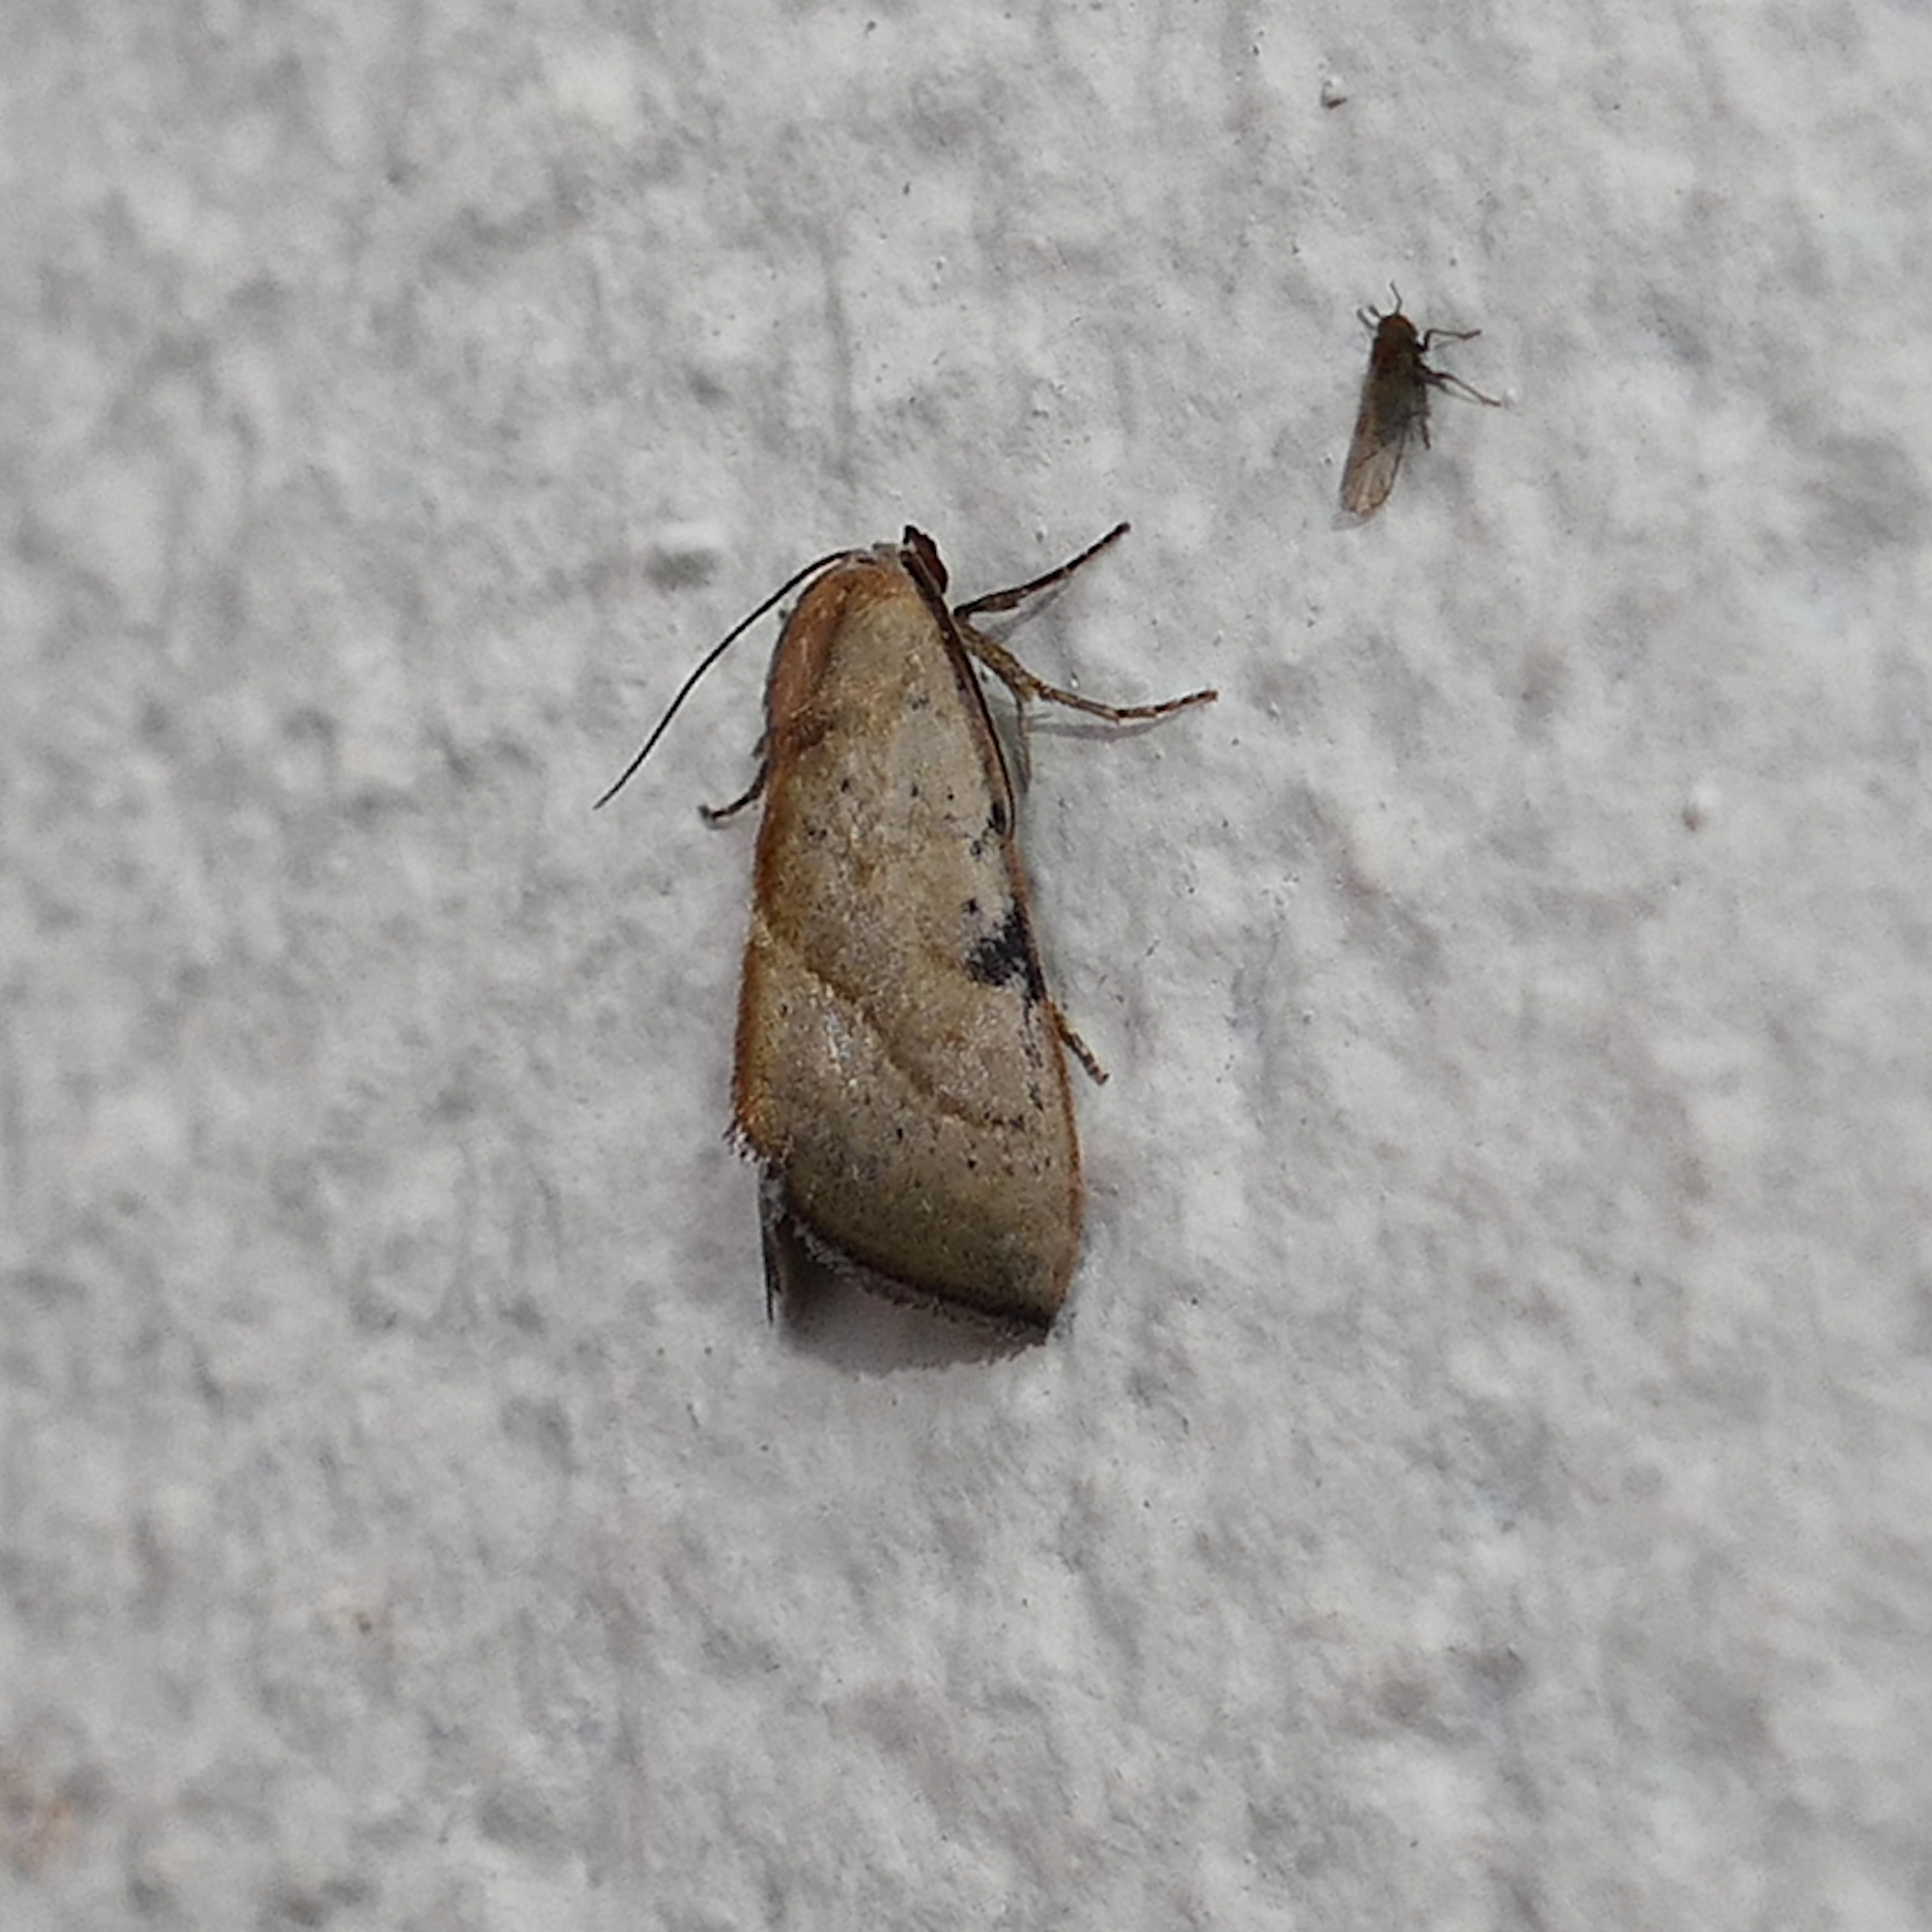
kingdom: Animalia
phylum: Arthropoda
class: Insecta
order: Lepidoptera
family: Noctuidae
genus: Galgula
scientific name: Galgula partita
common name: Wedgeling
